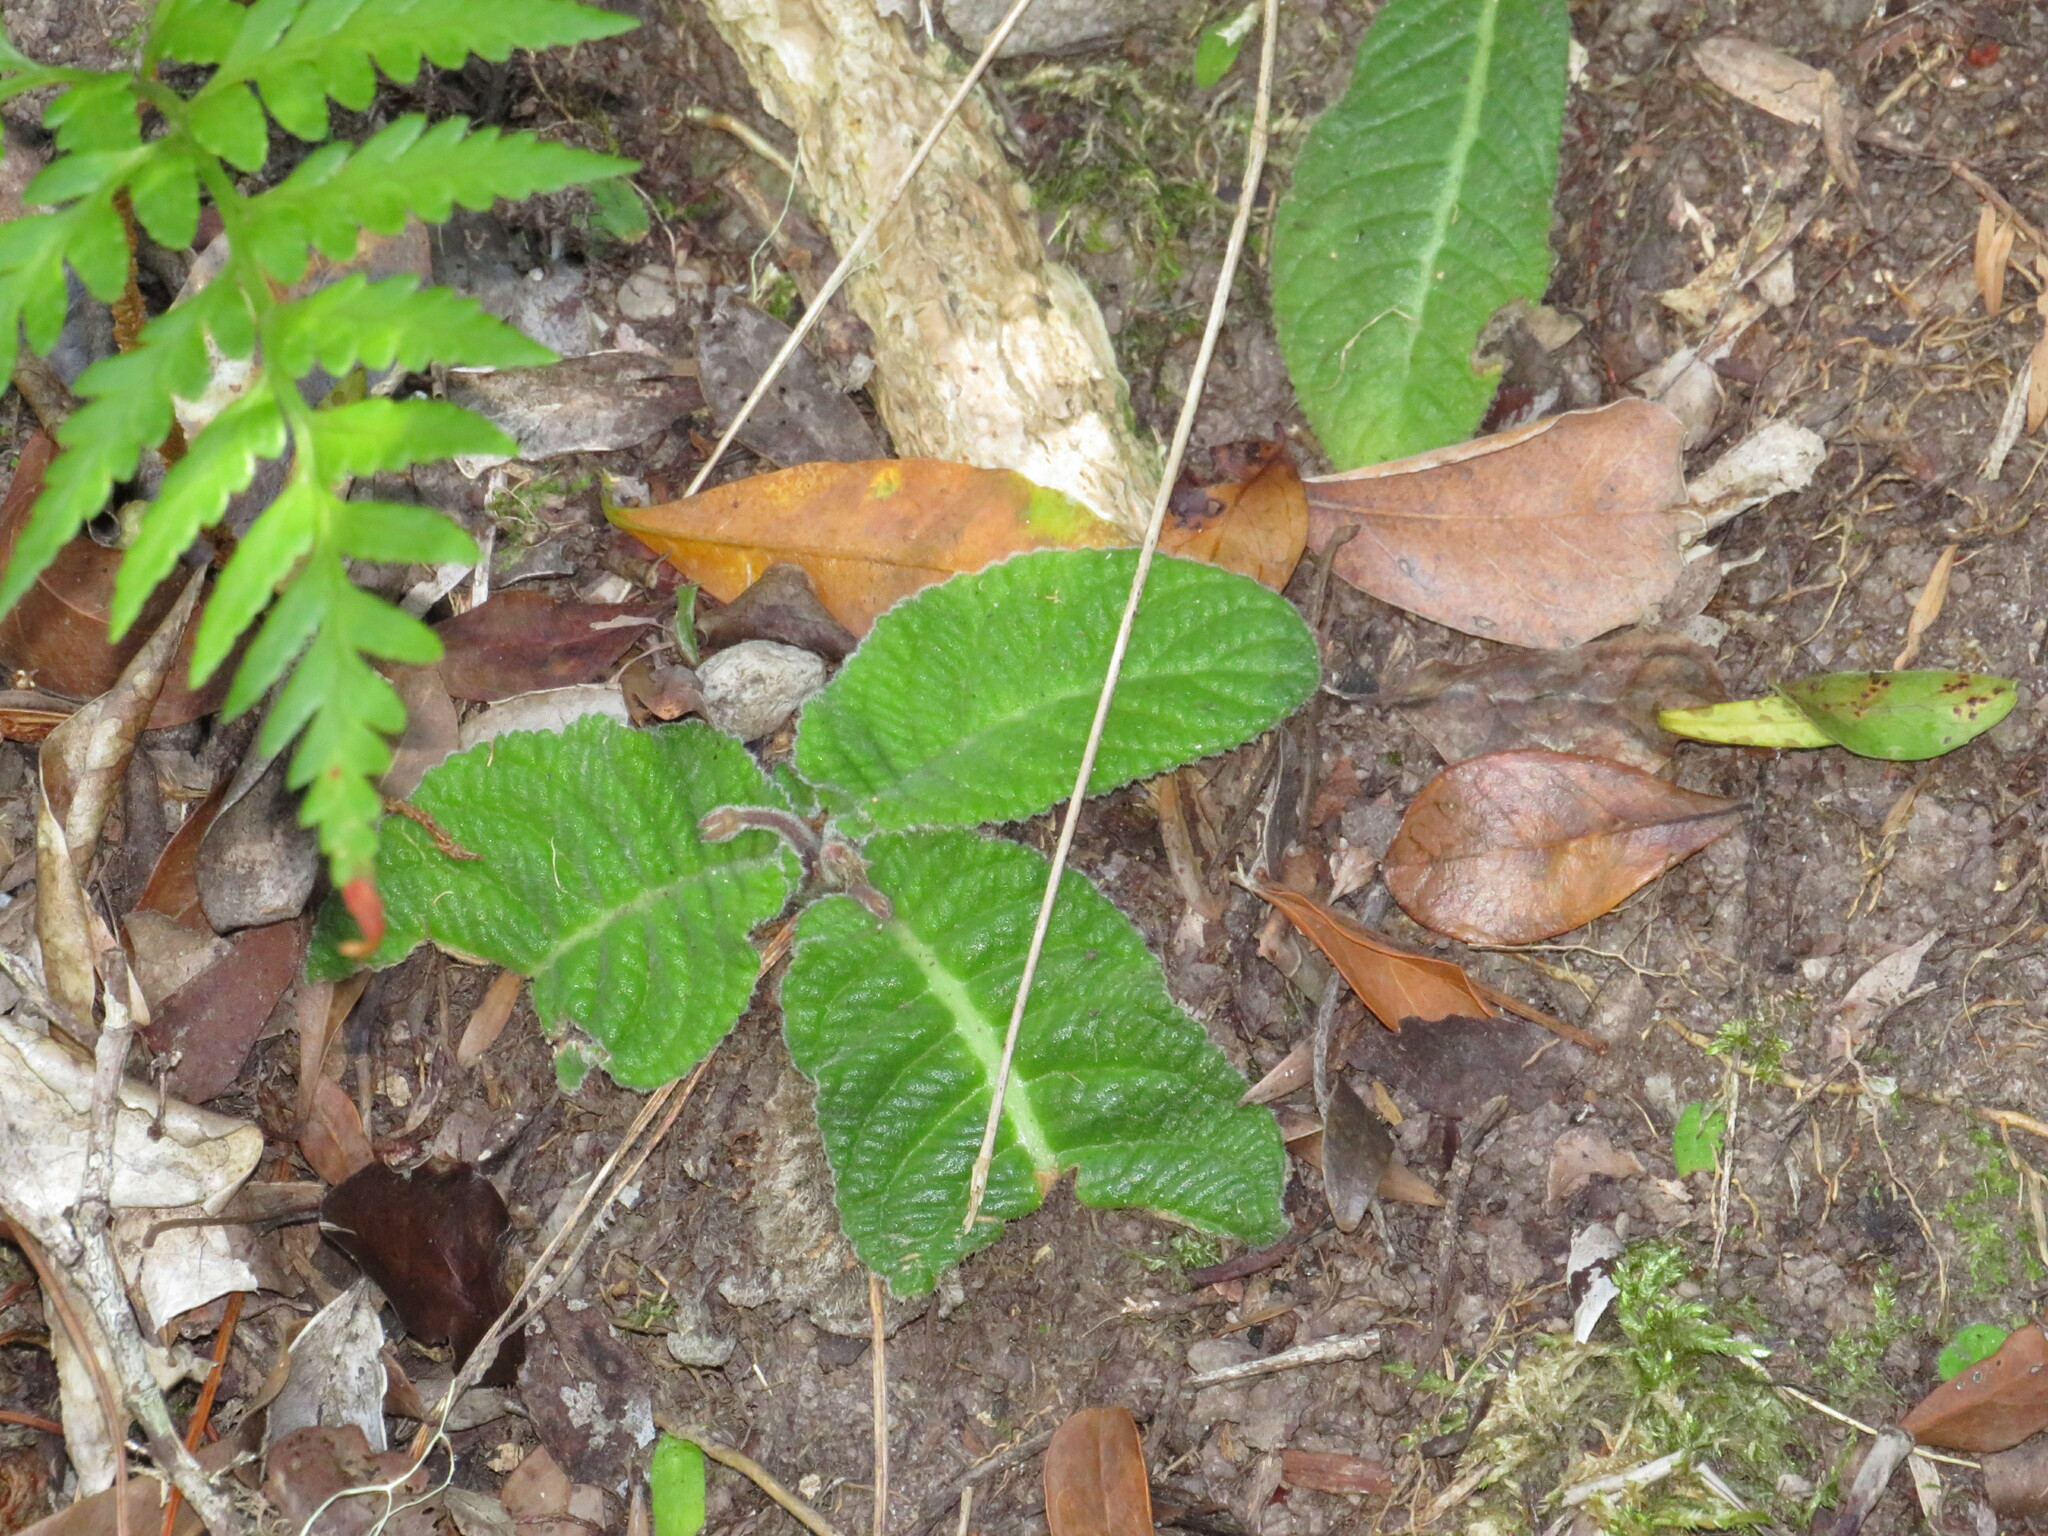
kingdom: Plantae
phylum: Tracheophyta
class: Magnoliopsida
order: Lamiales
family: Gesneriaceae
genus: Streptocarpus
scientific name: Streptocarpus rexii
